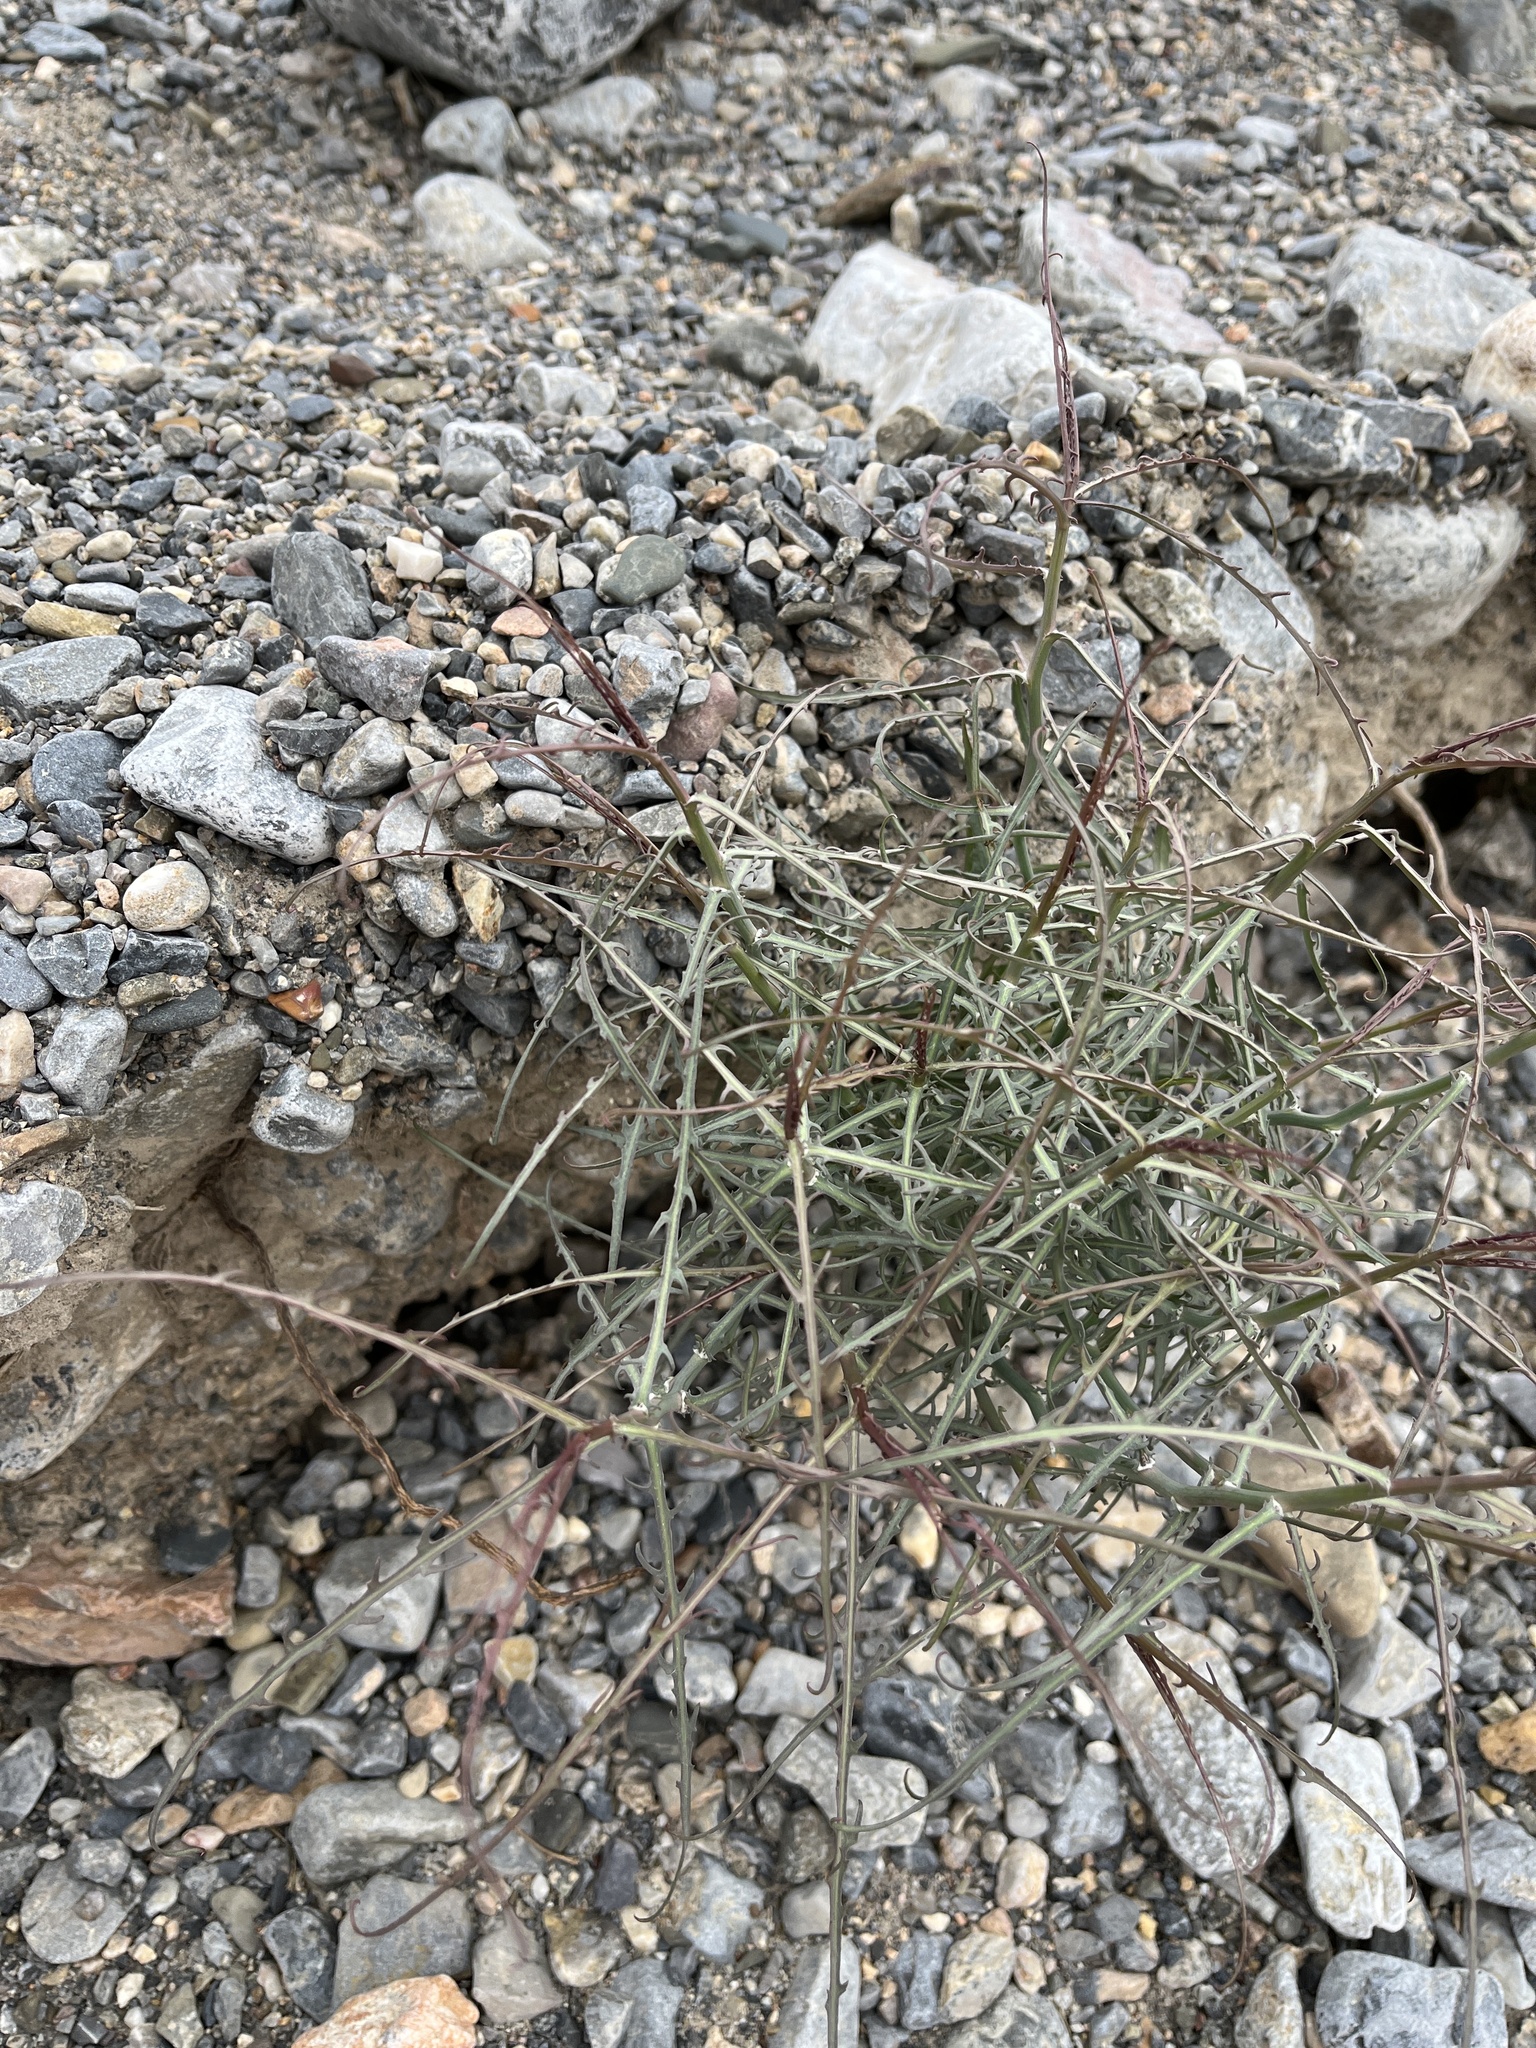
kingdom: Plantae
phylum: Tracheophyta
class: Magnoliopsida
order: Asterales
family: Asteraceae
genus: Stephanomeria
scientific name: Stephanomeria pauciflora
